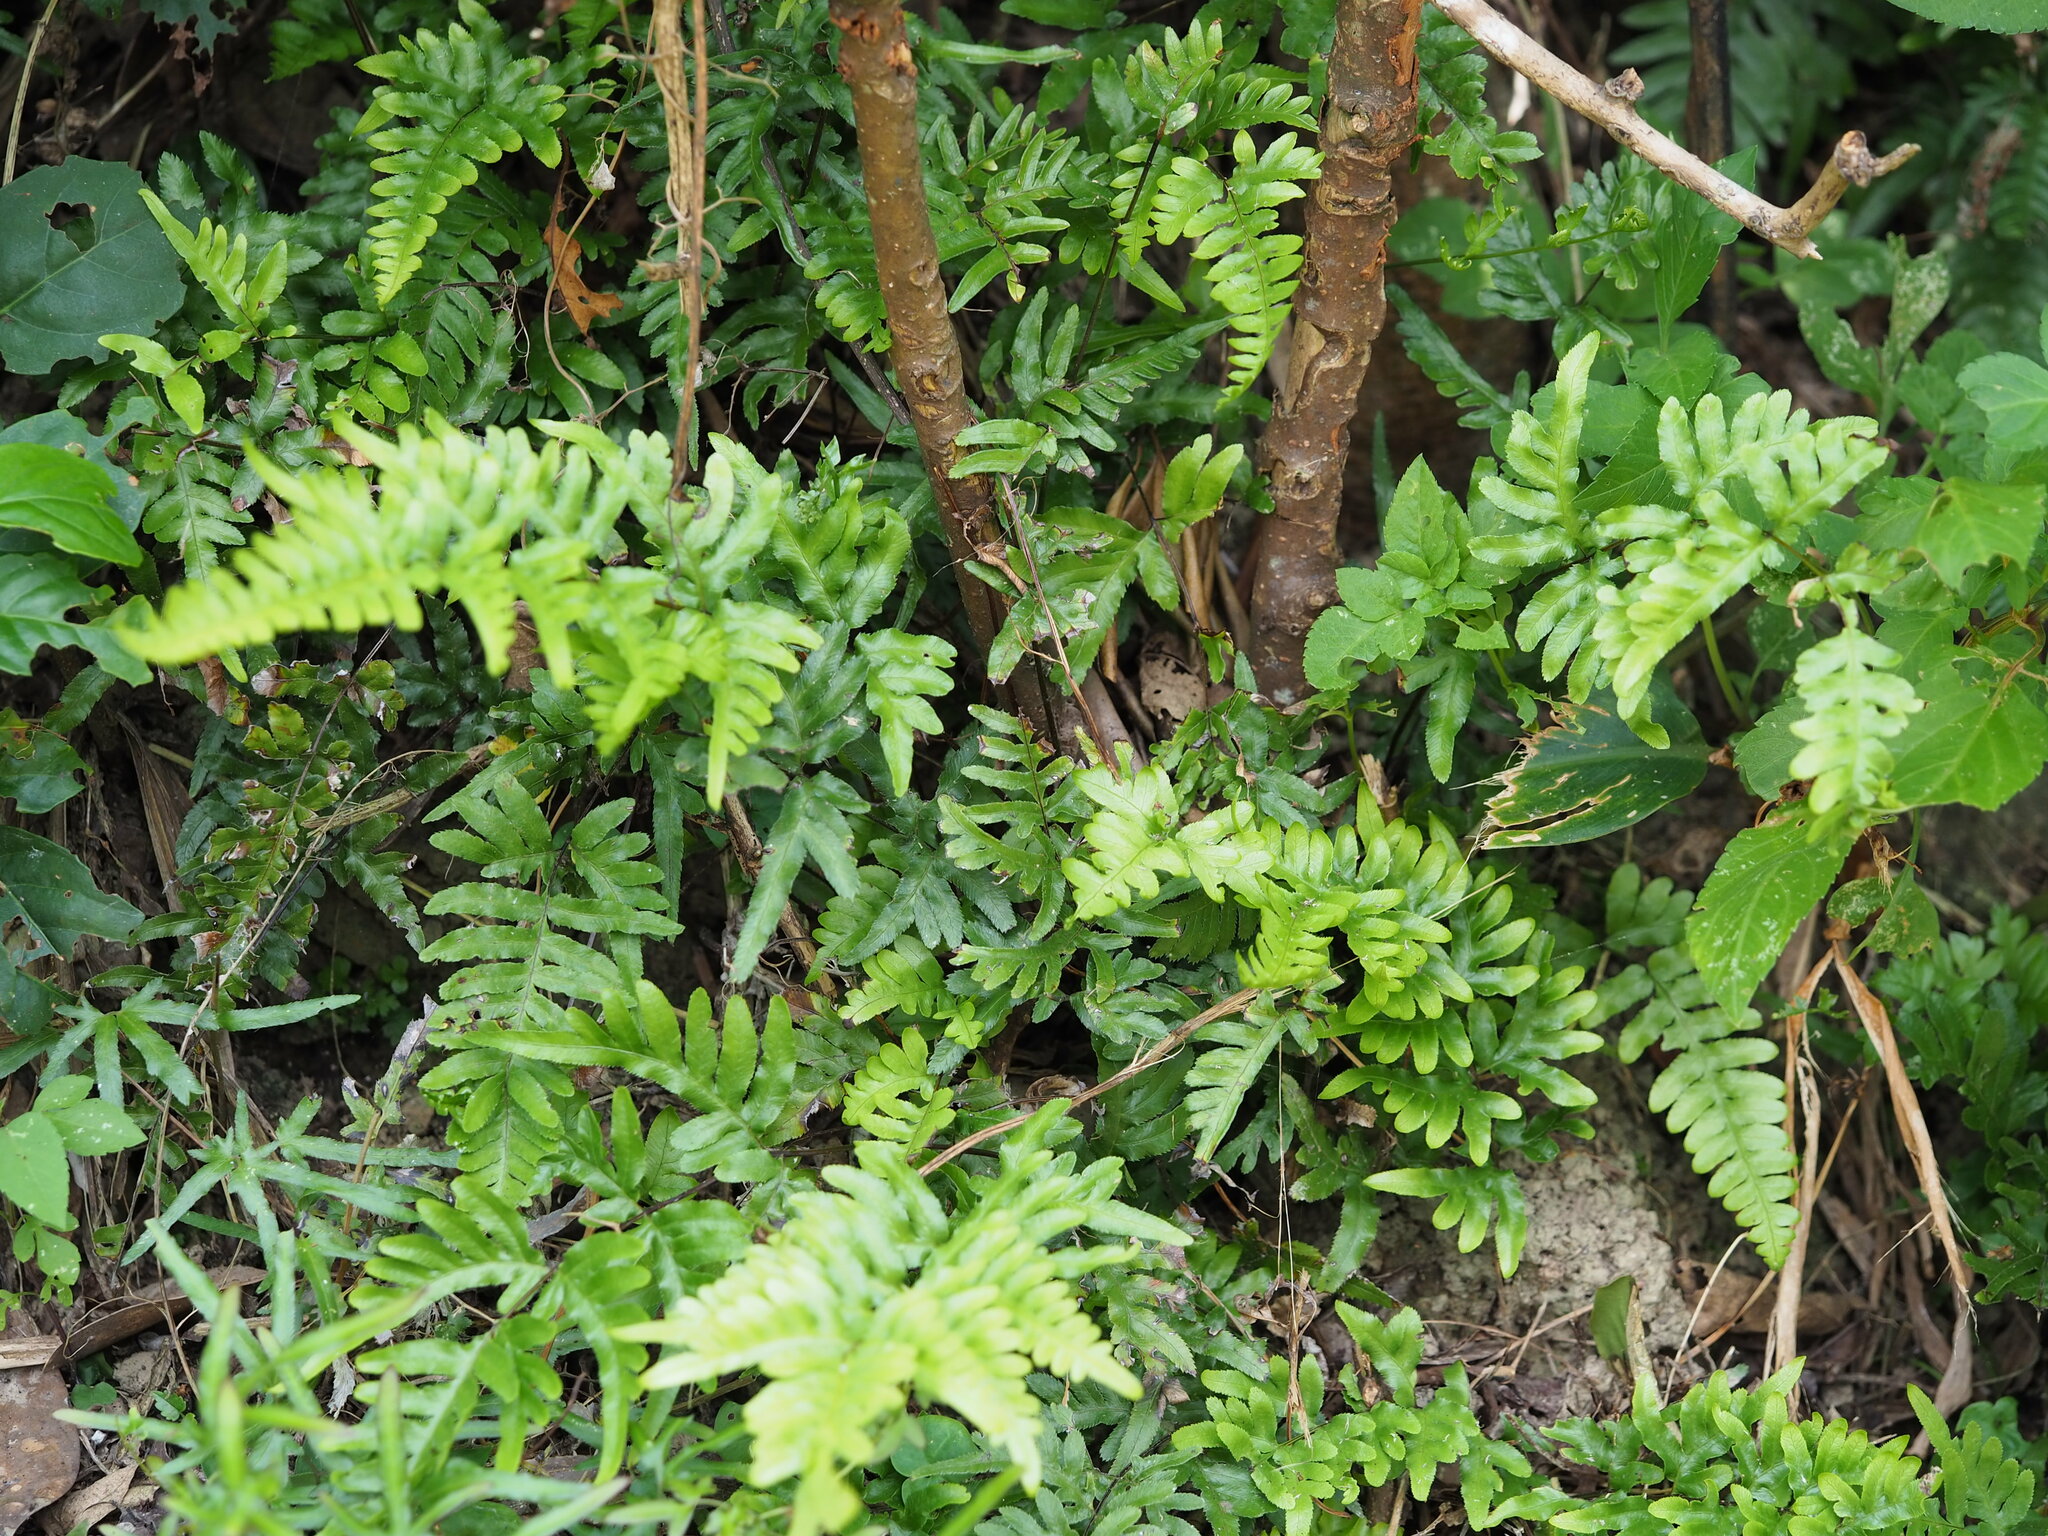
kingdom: Plantae
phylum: Tracheophyta
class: Polypodiopsida
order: Polypodiales
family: Pteridaceae
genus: Pteris
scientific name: Pteris dispar
